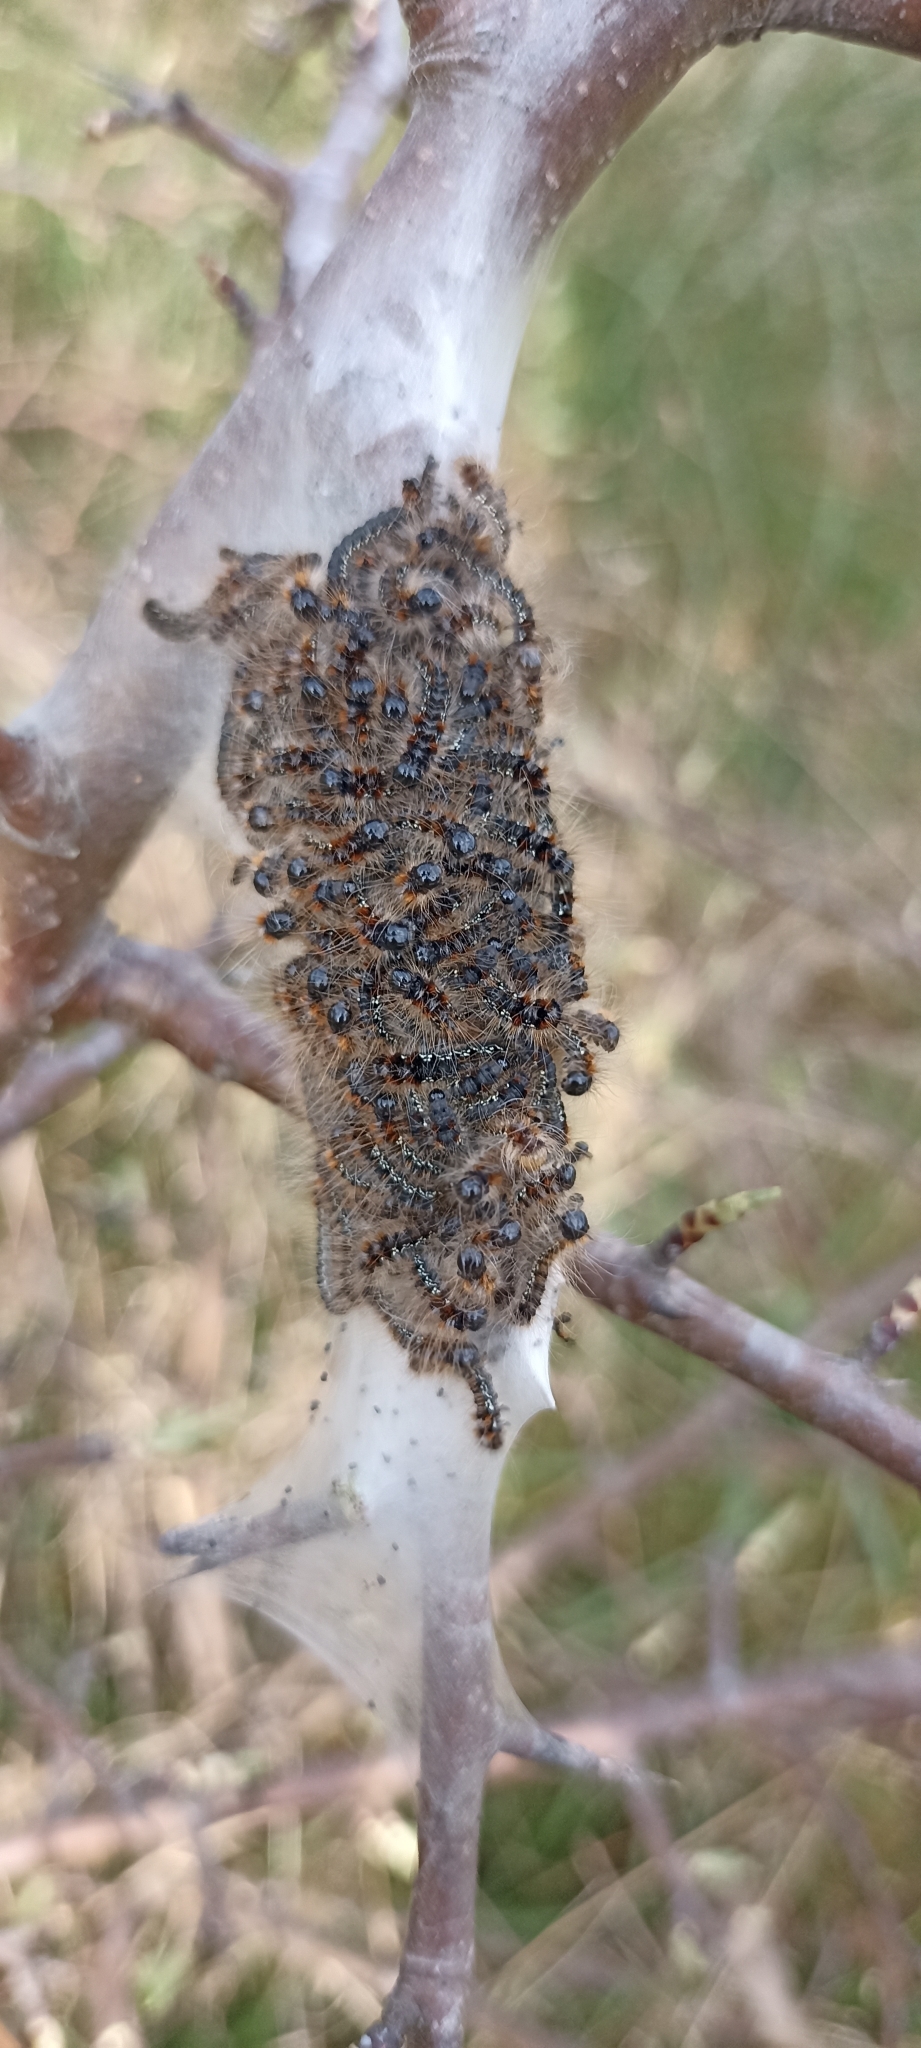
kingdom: Animalia
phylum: Arthropoda
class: Insecta
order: Lepidoptera
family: Lasiocampidae
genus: Eriogaster
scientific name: Eriogaster catax
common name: Eastern eggar
